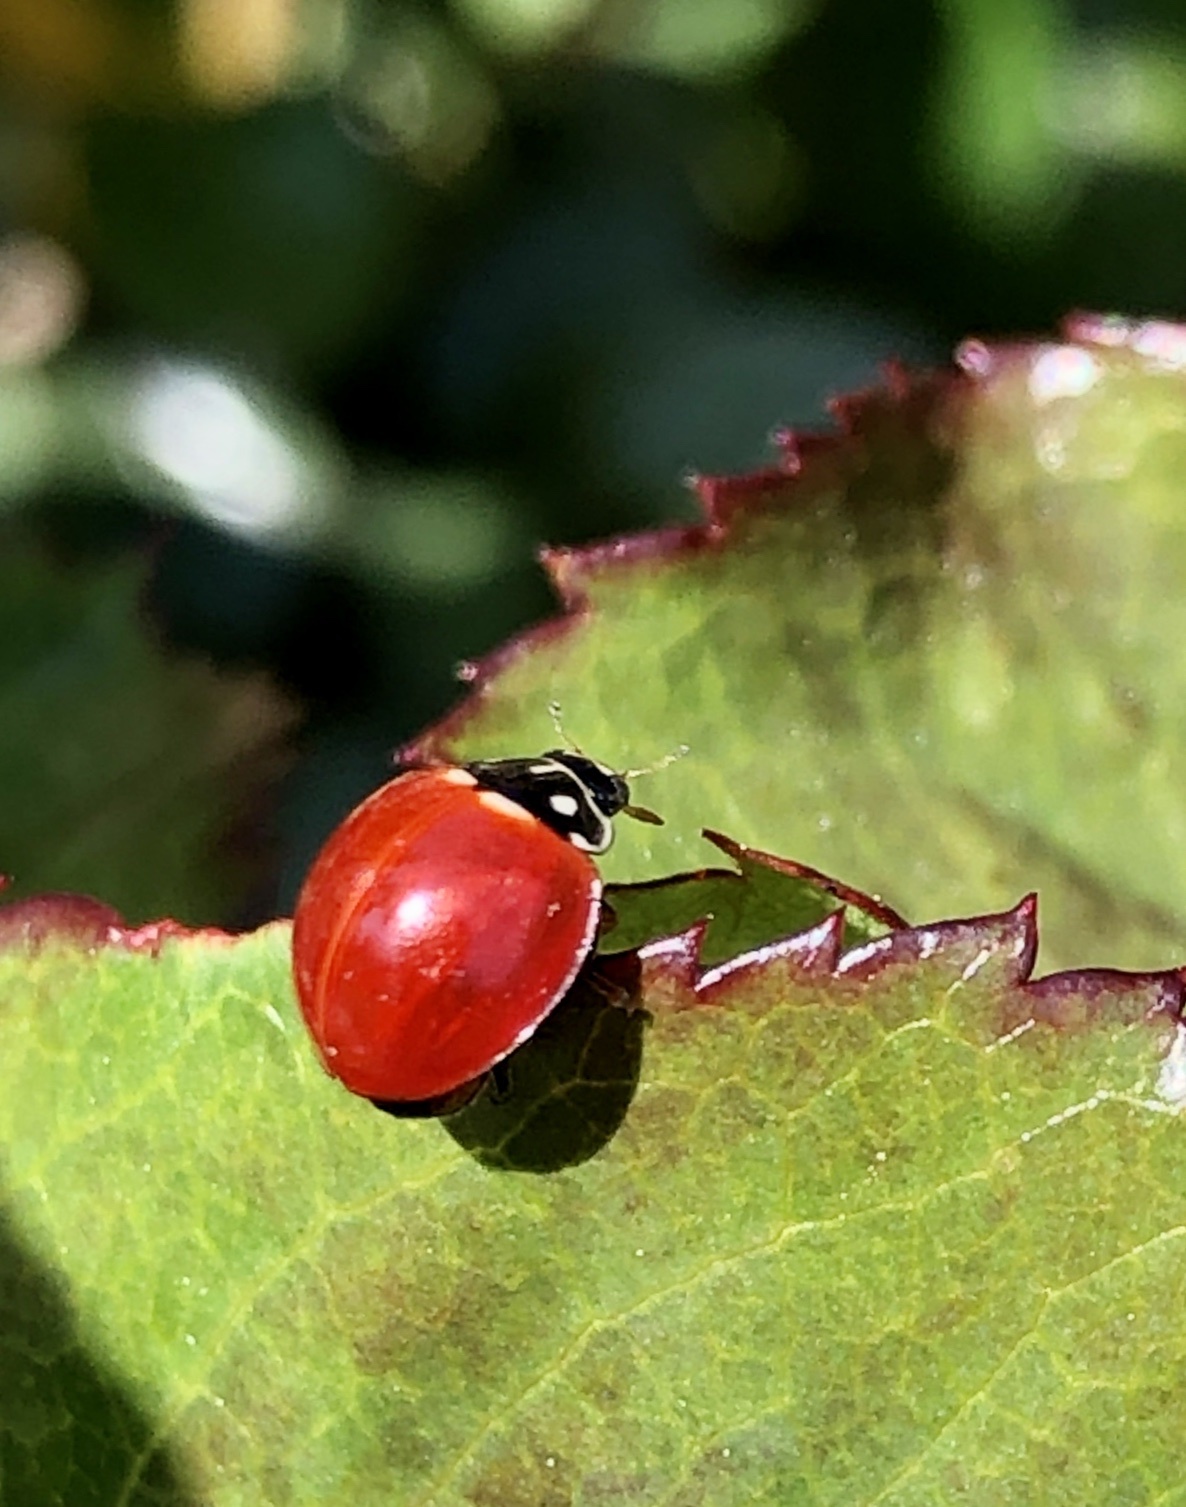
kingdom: Animalia
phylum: Arthropoda
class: Insecta
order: Coleoptera
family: Coccinellidae
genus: Cycloneda
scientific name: Cycloneda sanguinea
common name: Ladybird beetle
